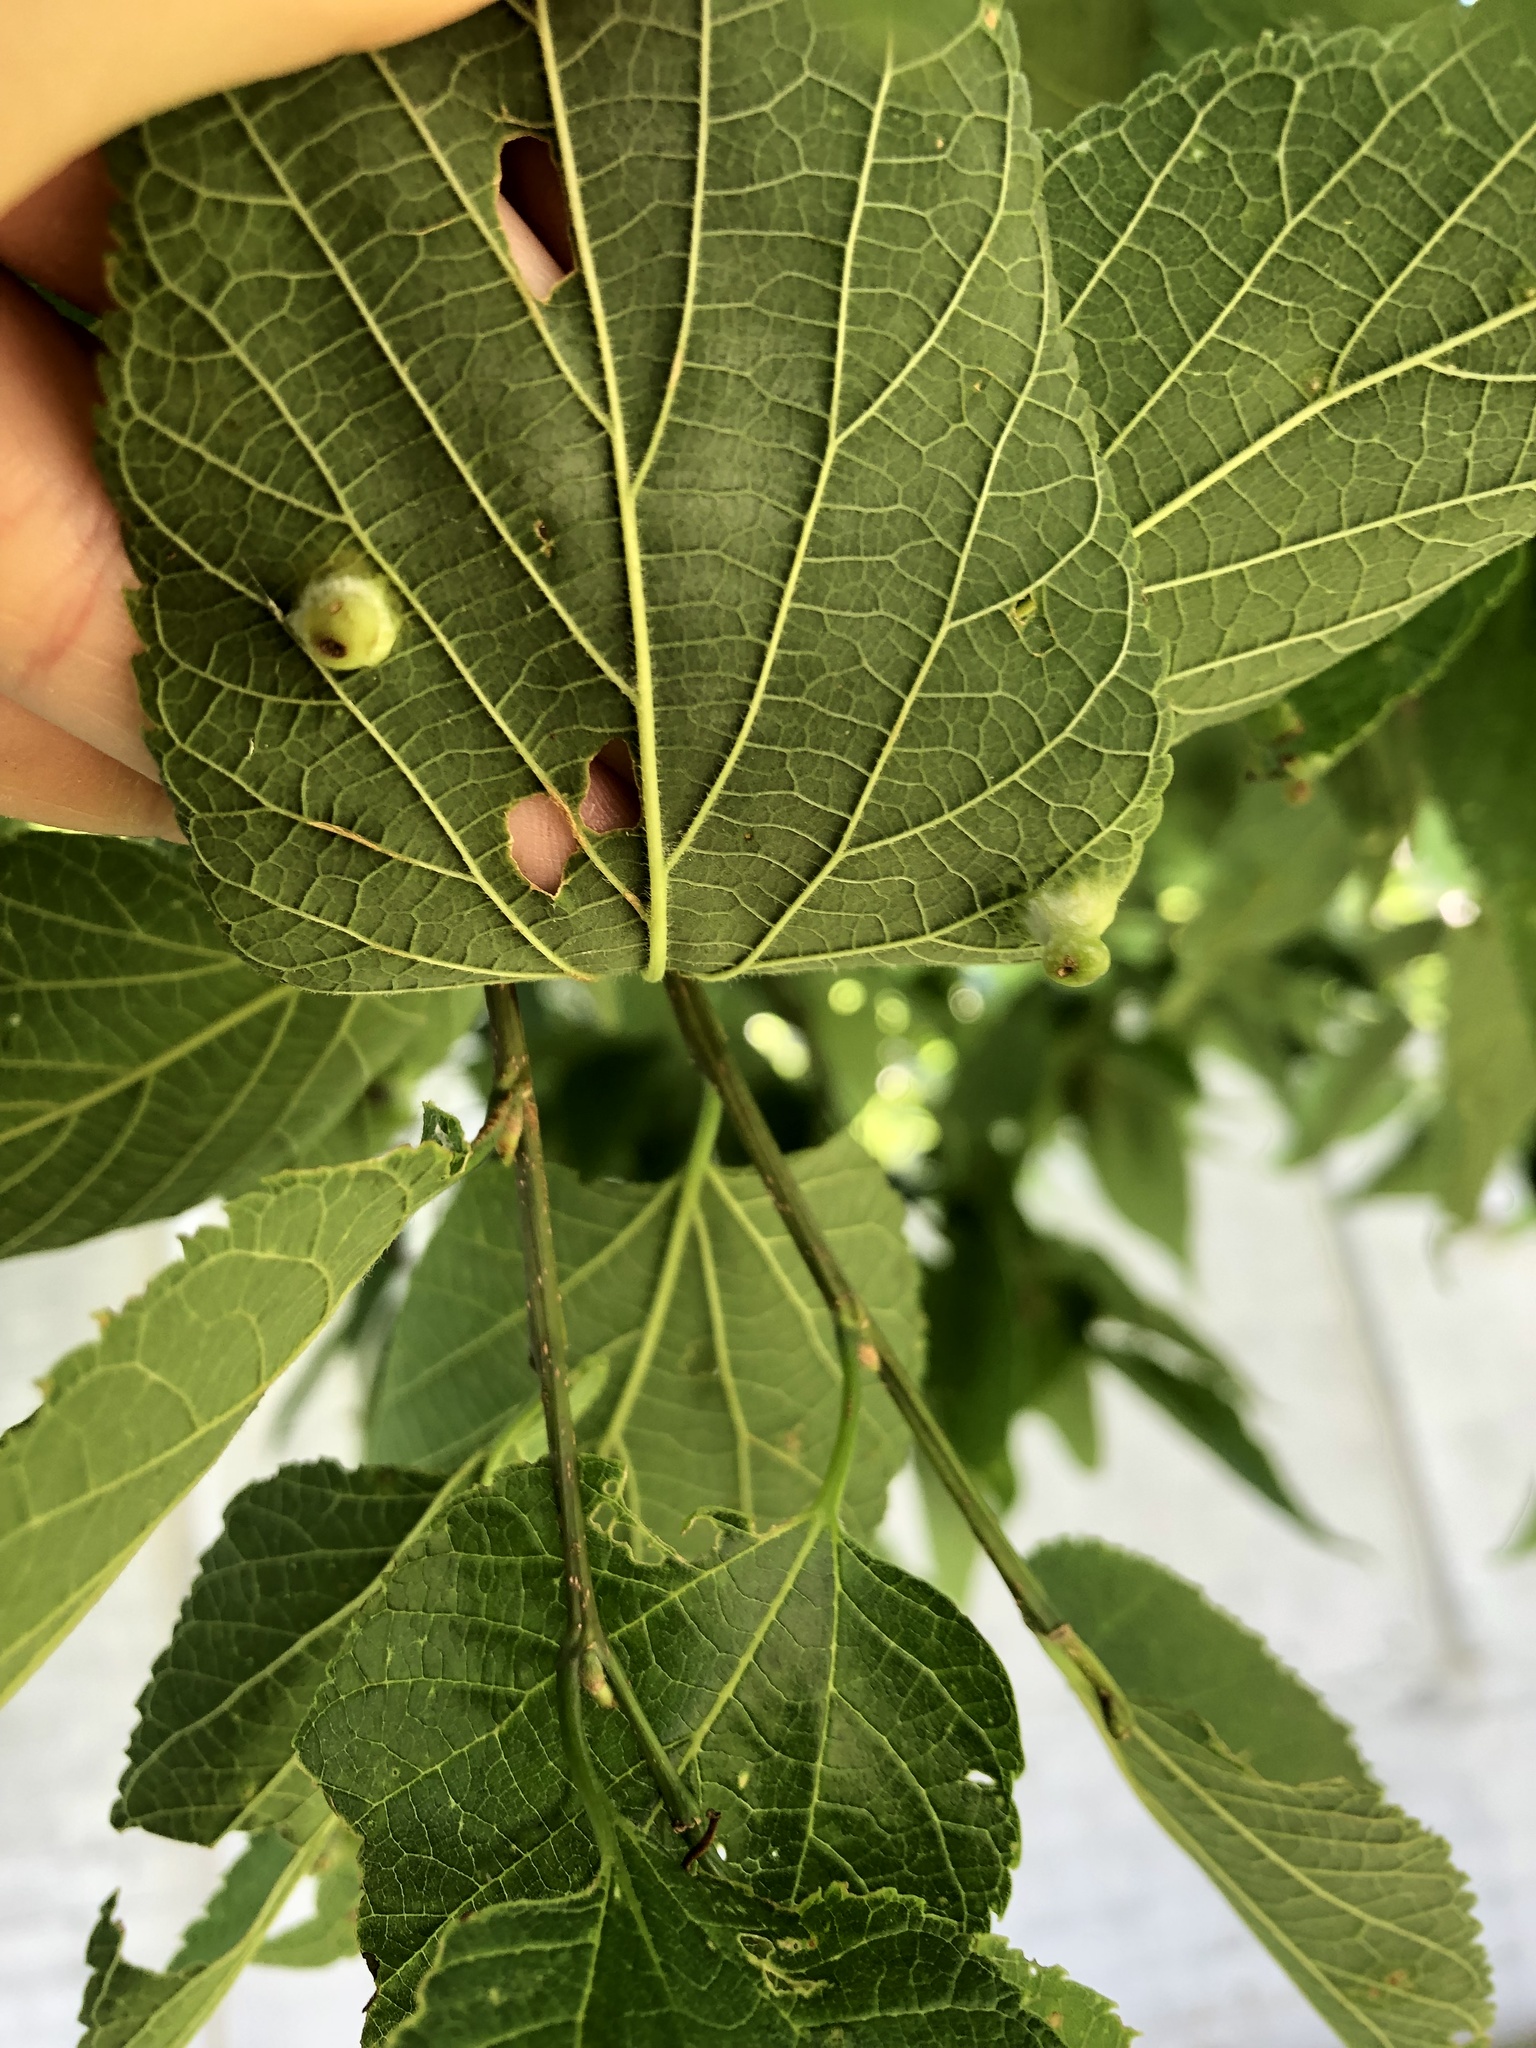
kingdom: Animalia
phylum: Arthropoda
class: Insecta
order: Hemiptera
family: Aphalaridae
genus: Pachypsylla
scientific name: Pachypsylla celtidismamma
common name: Hackberry nipplegall psyllid
